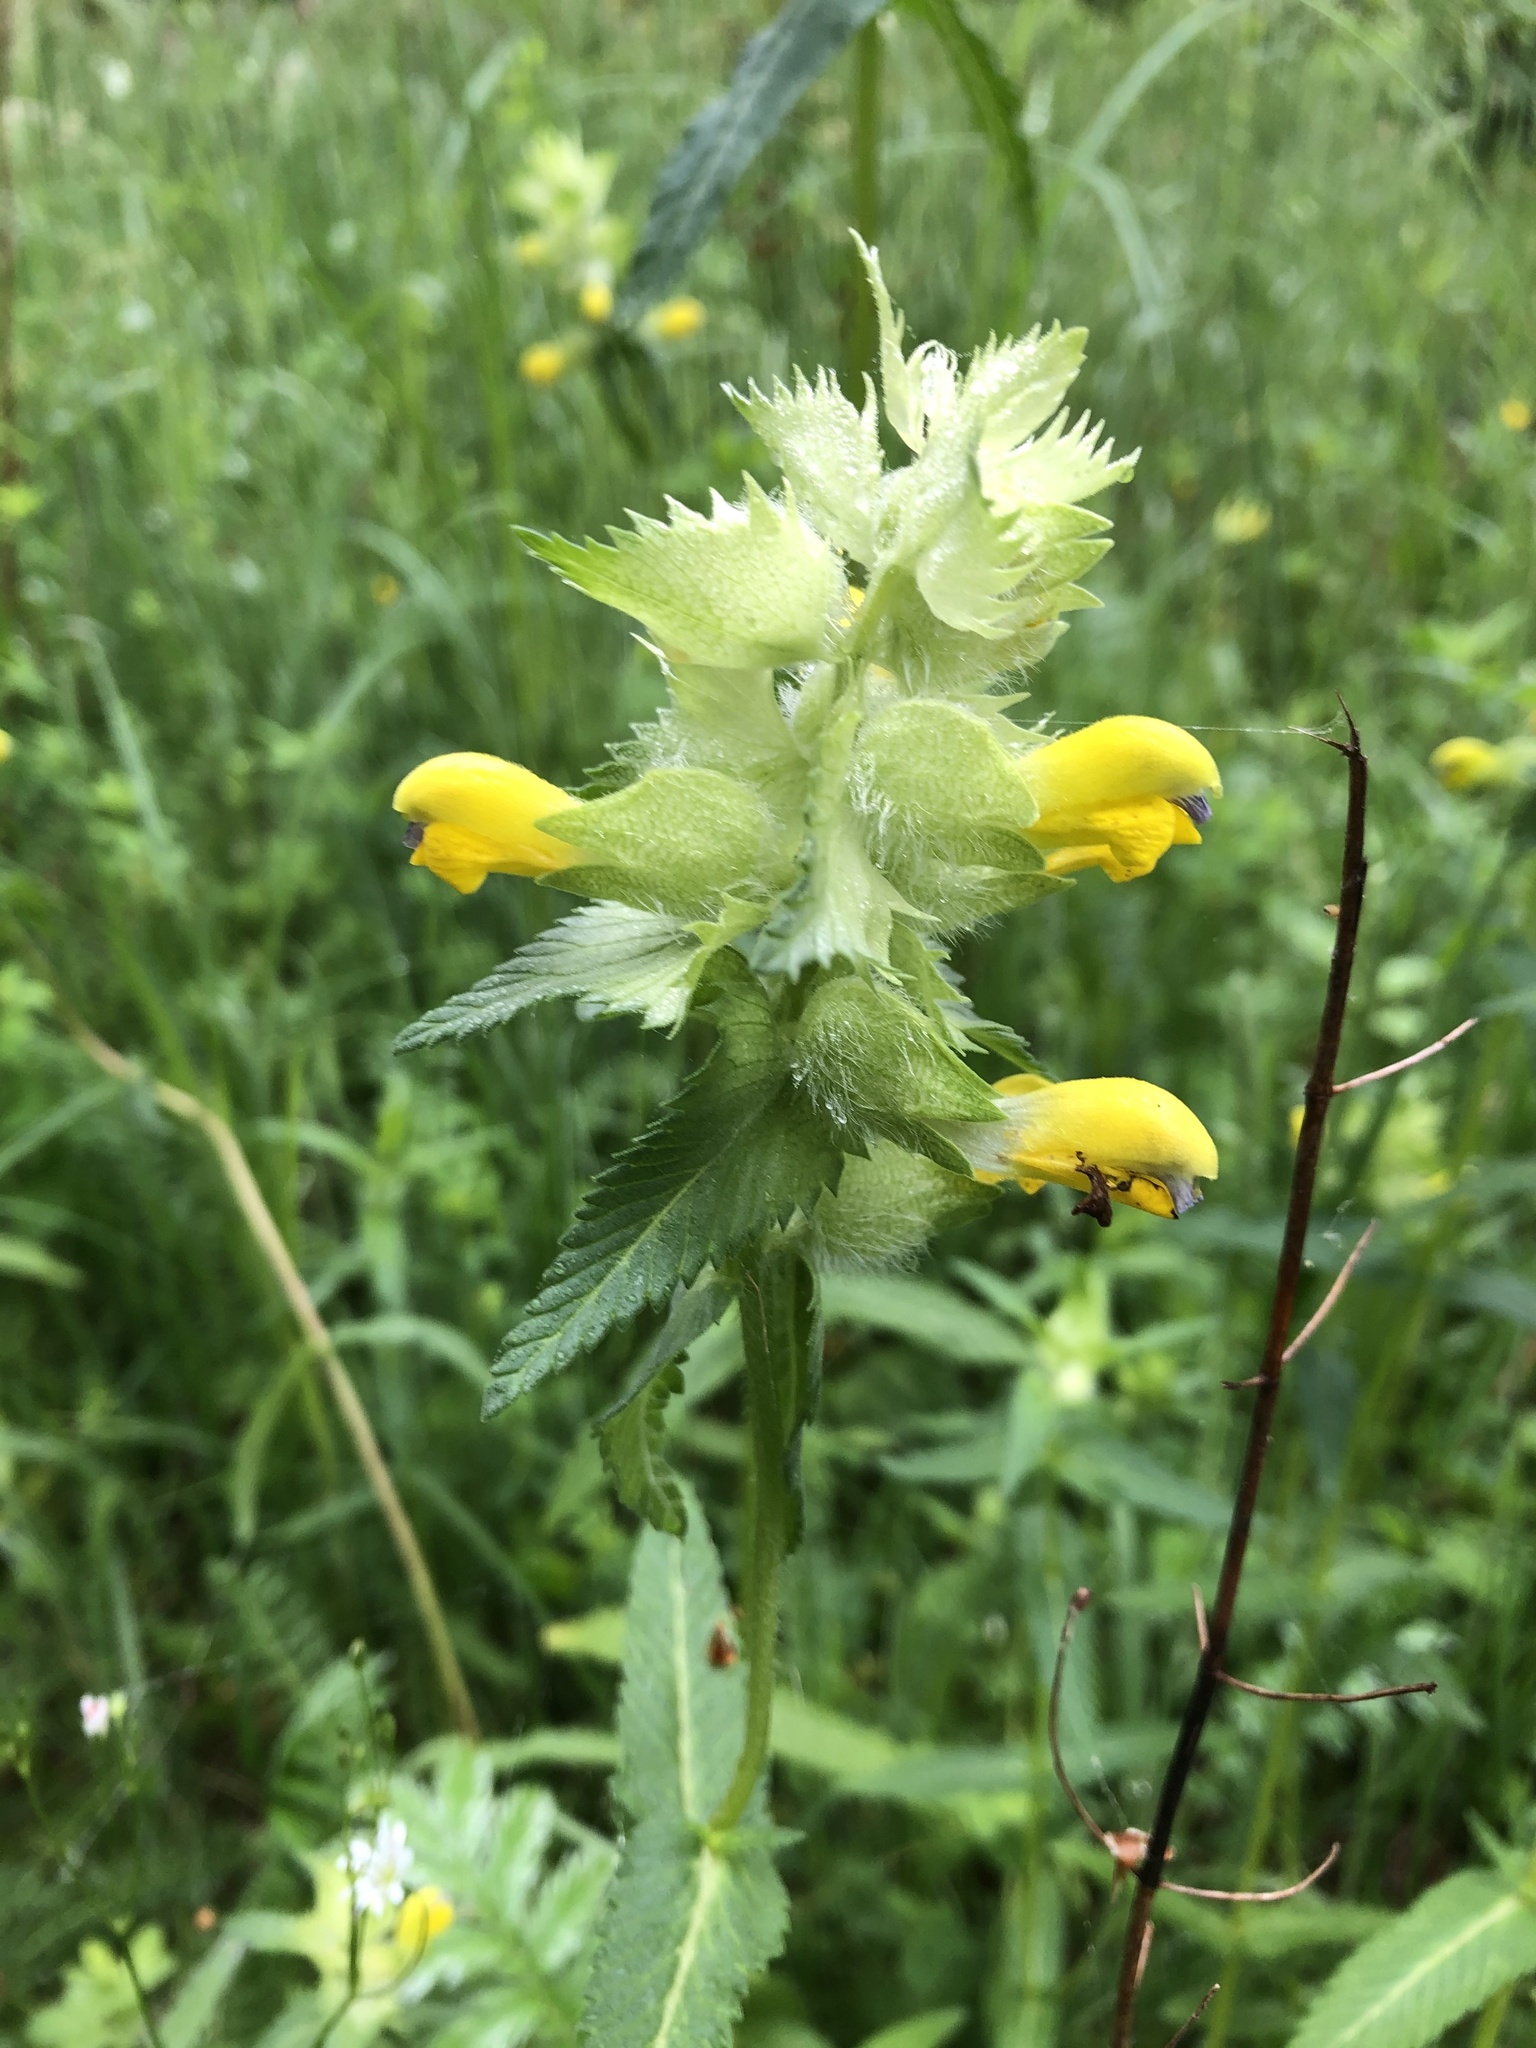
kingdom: Plantae
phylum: Tracheophyta
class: Magnoliopsida
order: Lamiales
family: Orobanchaceae
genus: Rhinanthus
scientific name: Rhinanthus alectorolophus
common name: Greater yellow-rattle
